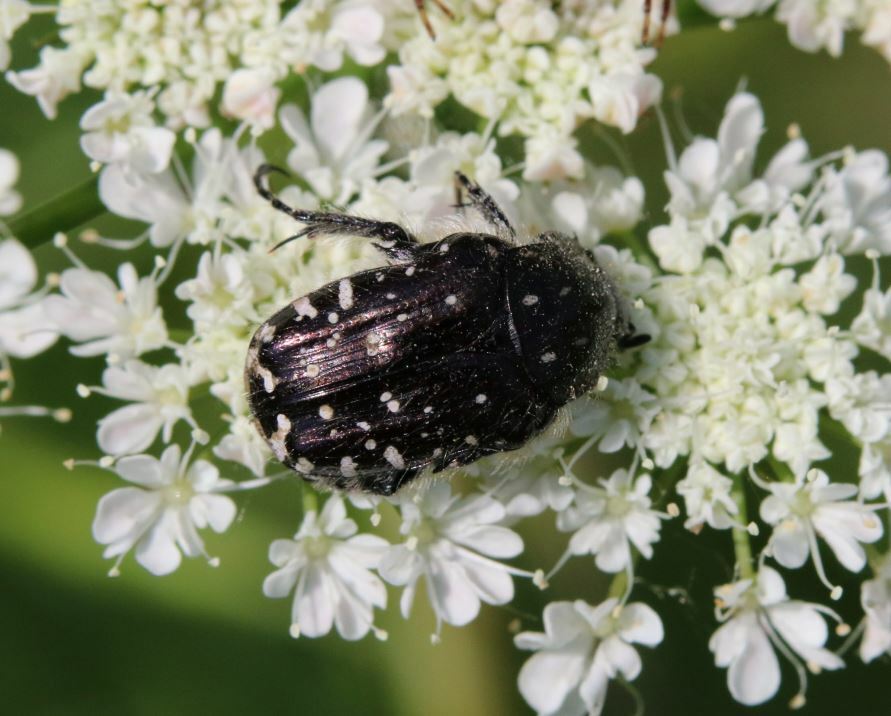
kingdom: Animalia
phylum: Arthropoda
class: Insecta
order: Coleoptera
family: Scarabaeidae
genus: Oxythyrea
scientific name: Oxythyrea funesta
